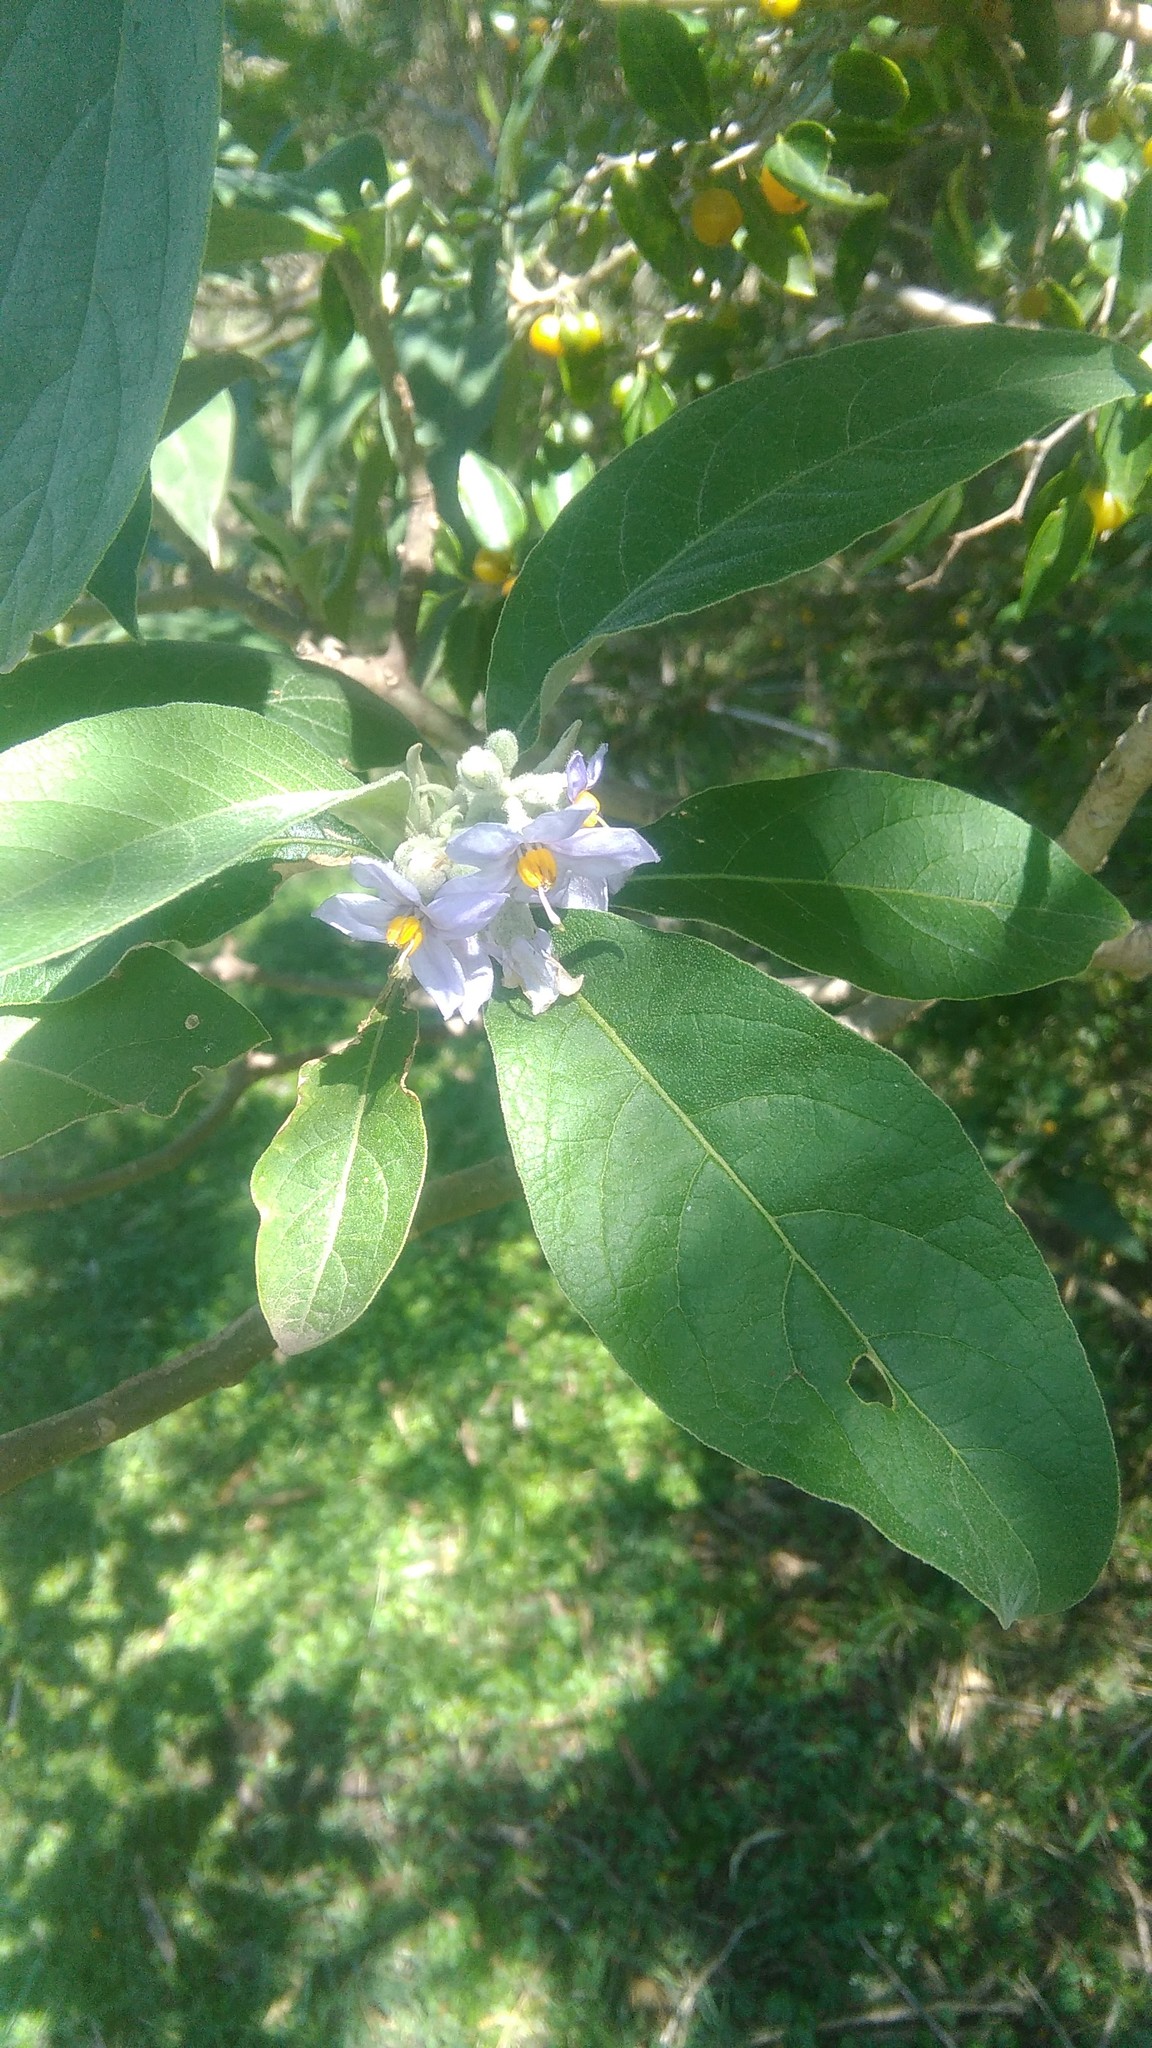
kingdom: Plantae
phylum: Tracheophyta
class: Magnoliopsida
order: Solanales
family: Solanaceae
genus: Solanum
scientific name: Solanum granulosoleprosum
